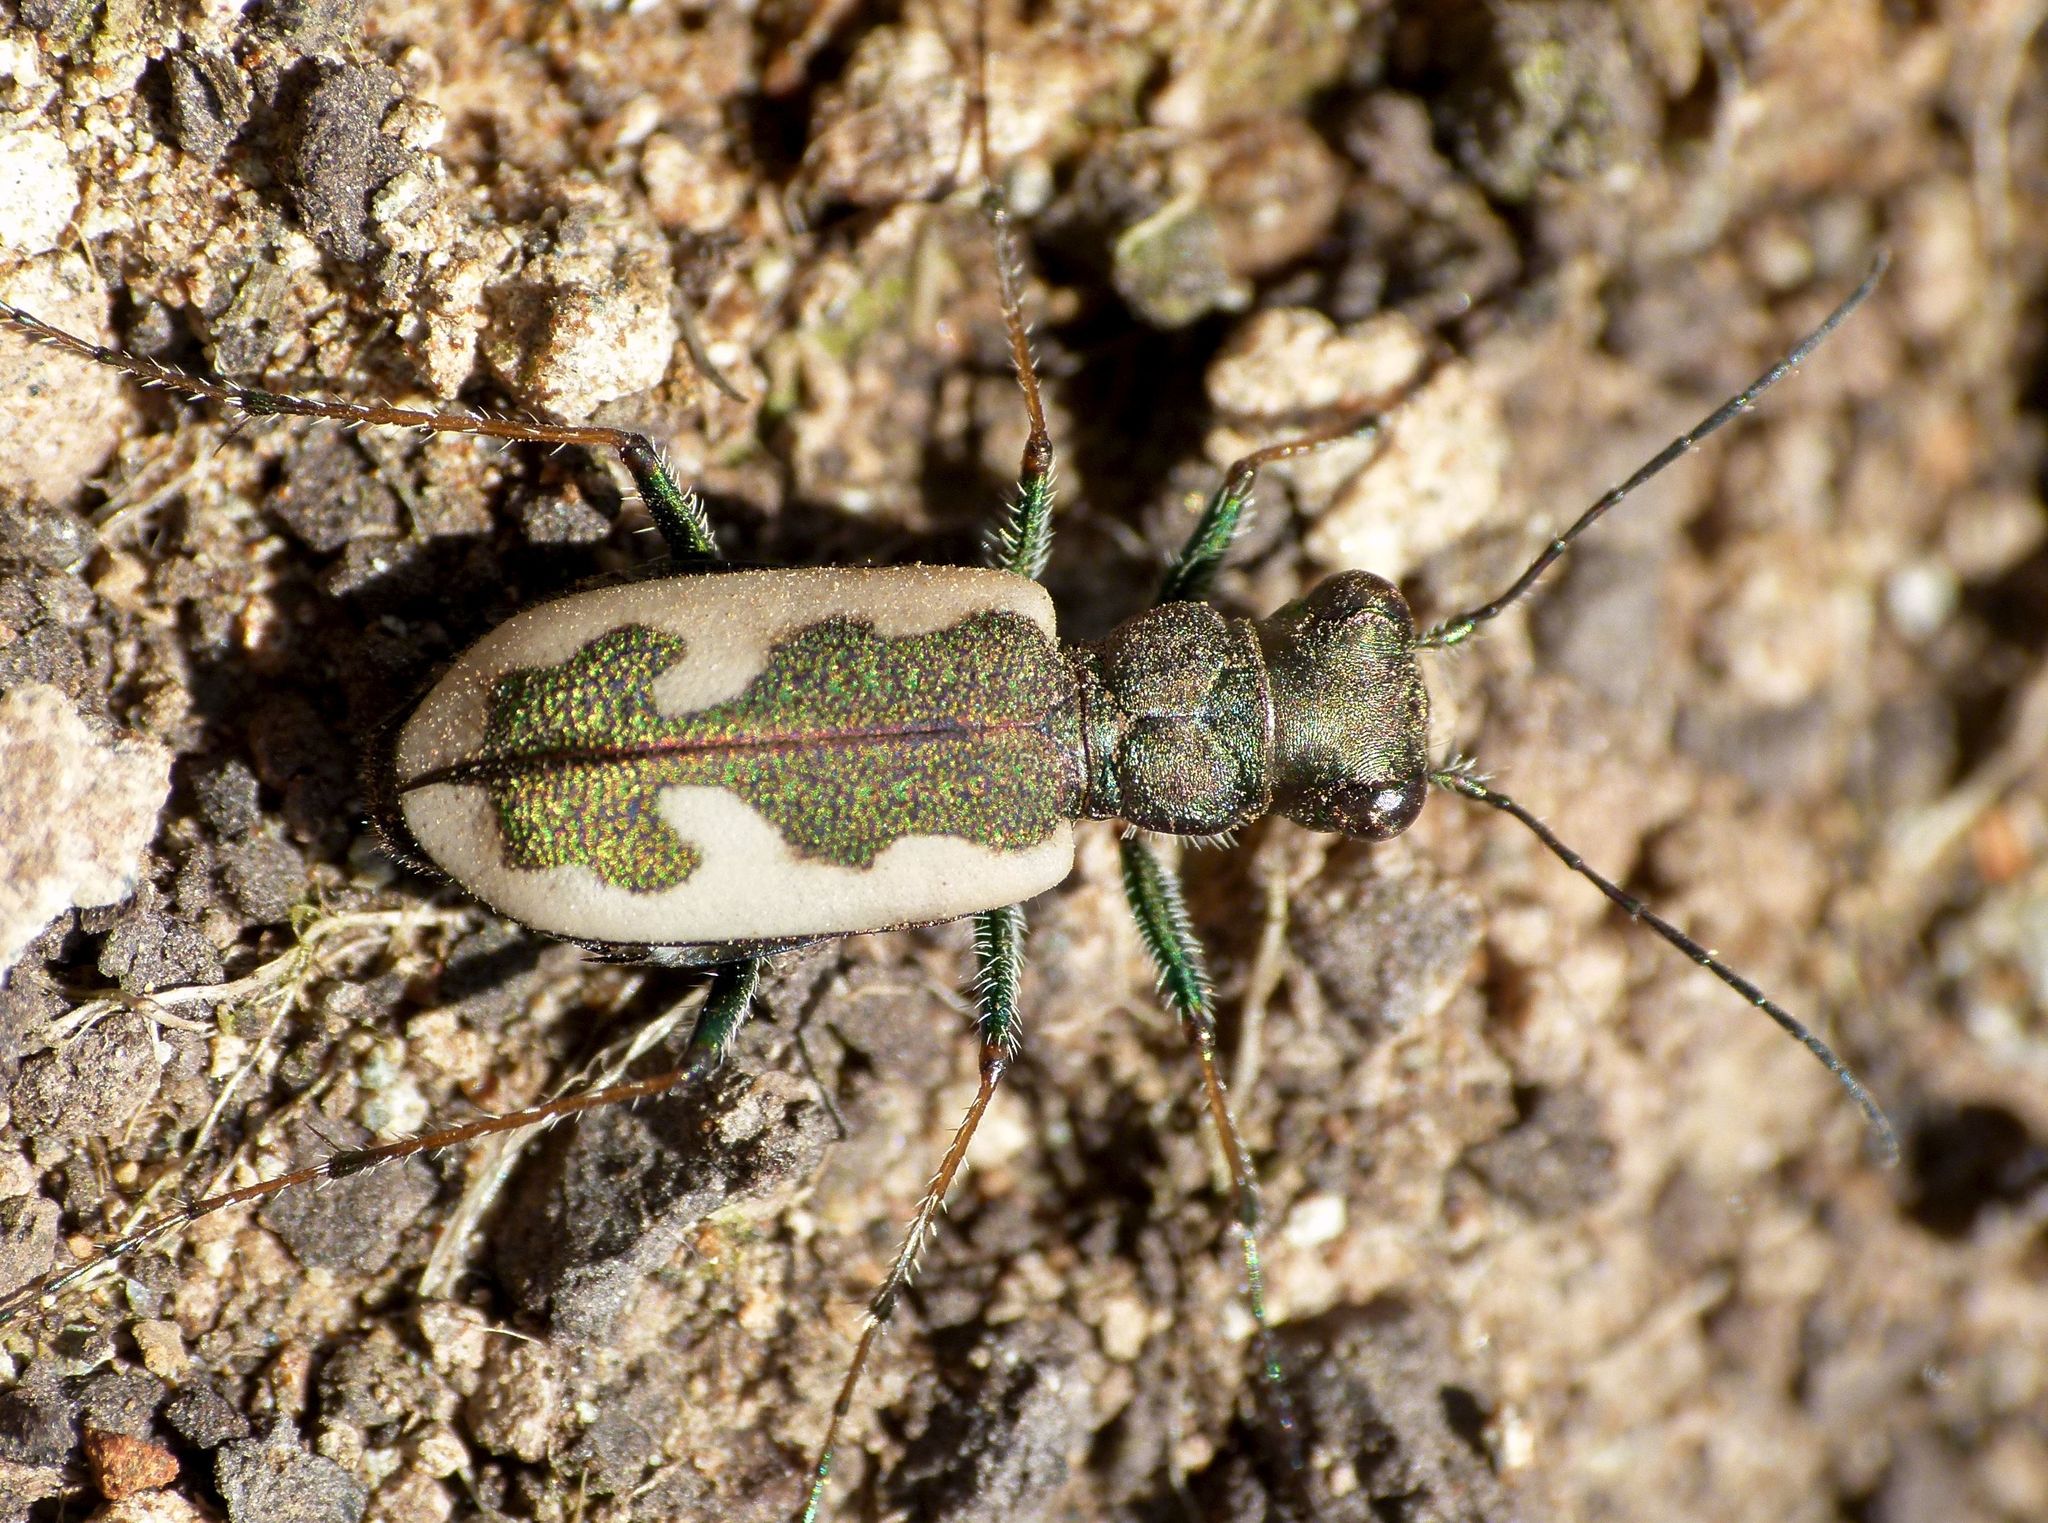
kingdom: Animalia
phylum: Arthropoda
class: Insecta
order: Coleoptera
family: Carabidae
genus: Neocicindela
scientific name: Neocicindela latecincta
